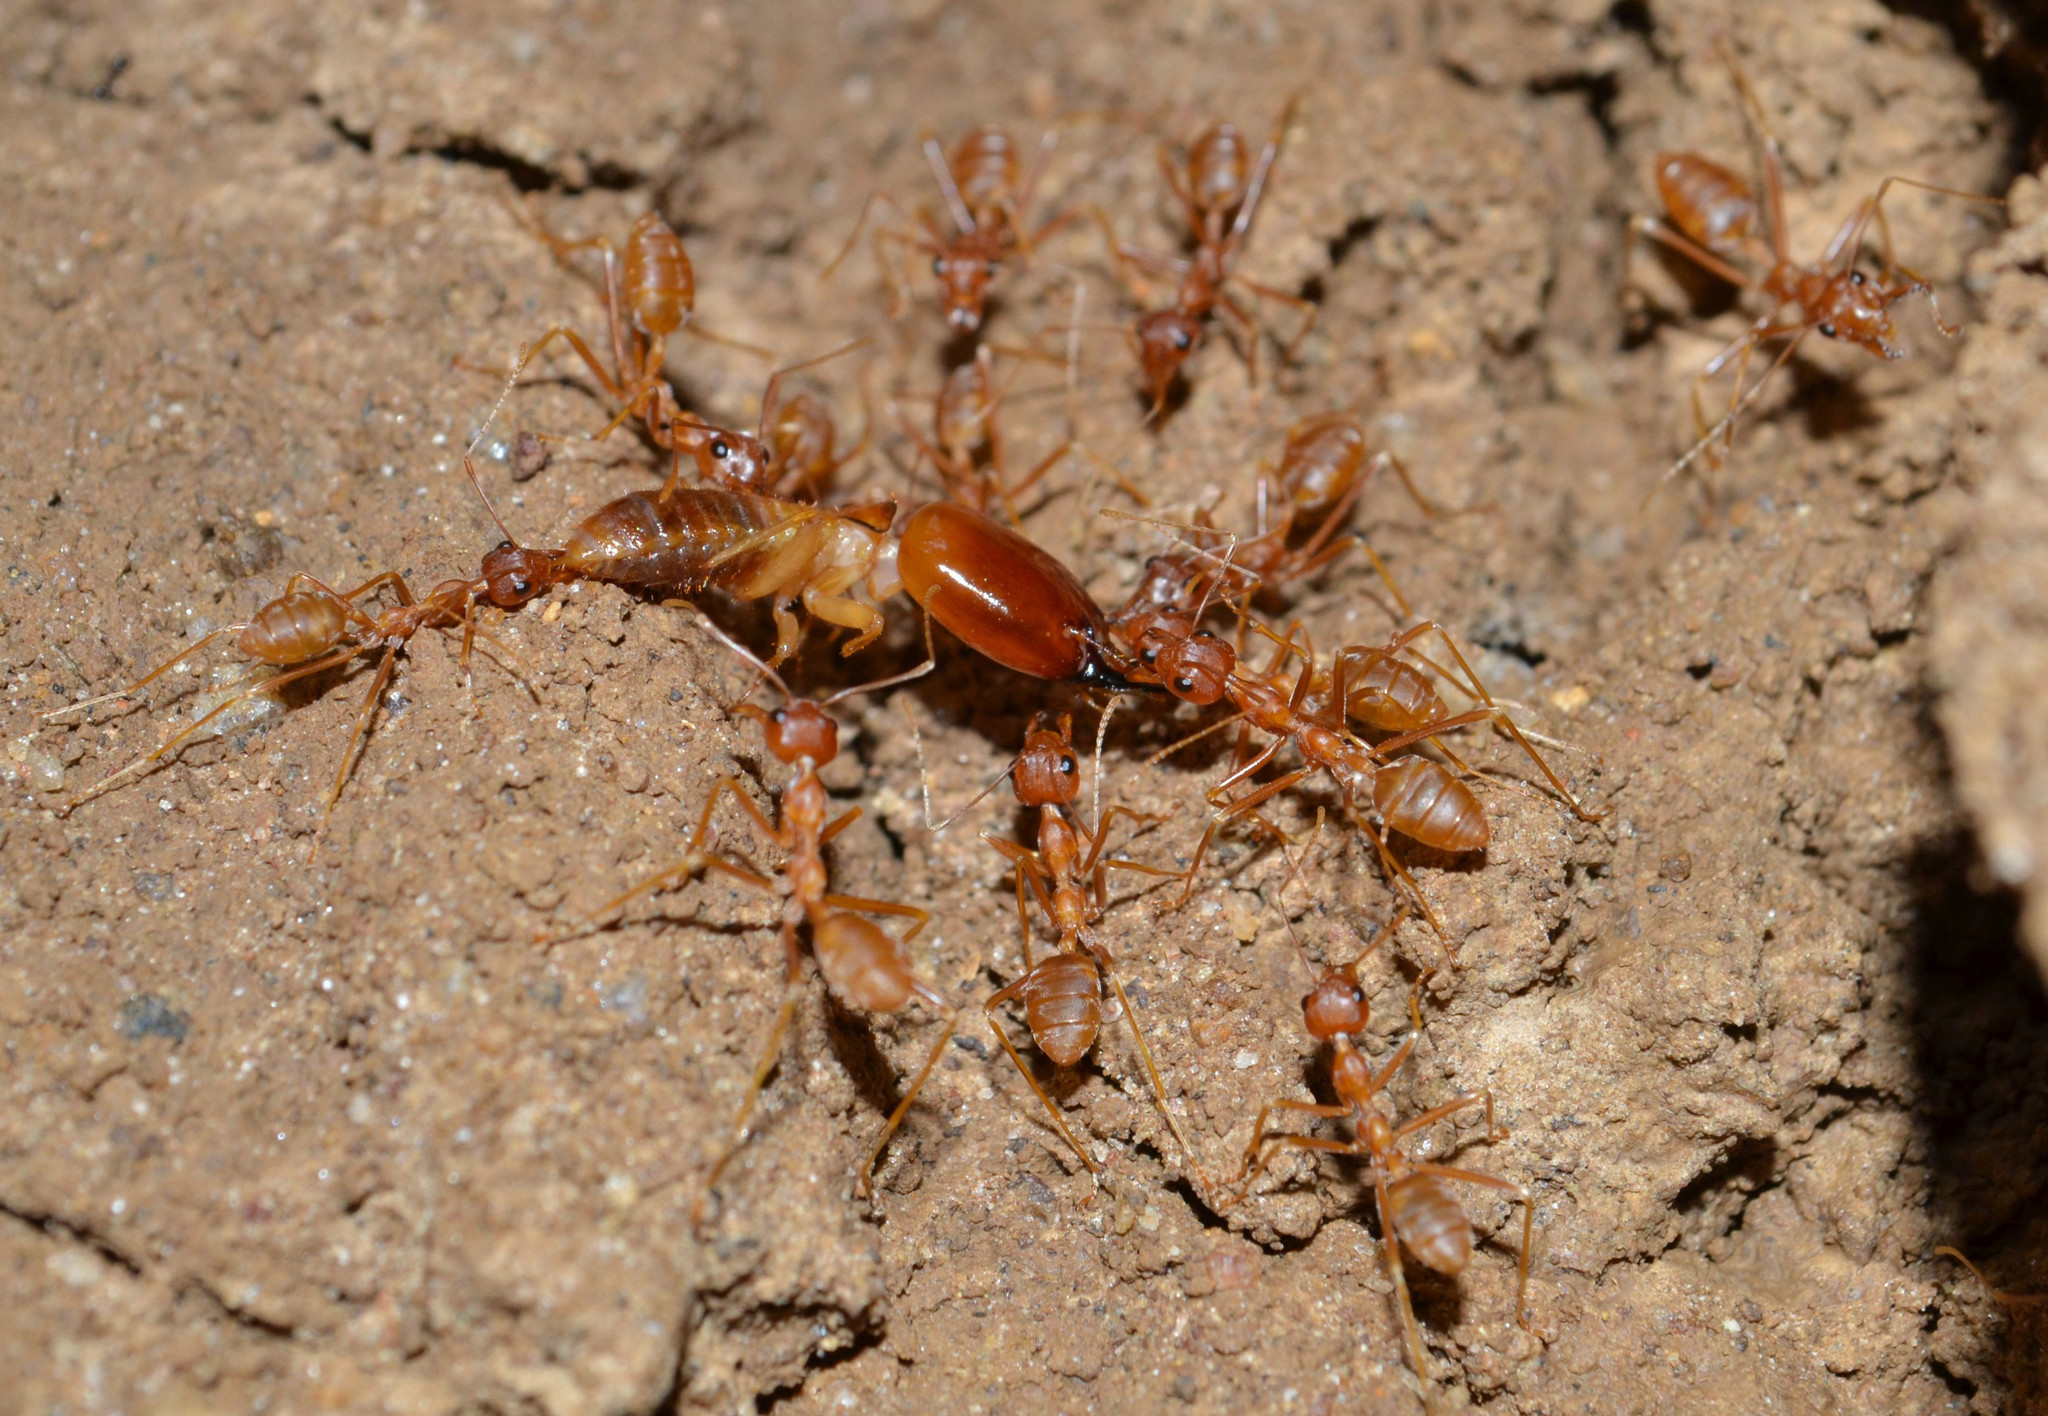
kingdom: Animalia
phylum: Arthropoda
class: Insecta
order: Hymenoptera
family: Formicidae
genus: Oecophylla
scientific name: Oecophylla longinoda
